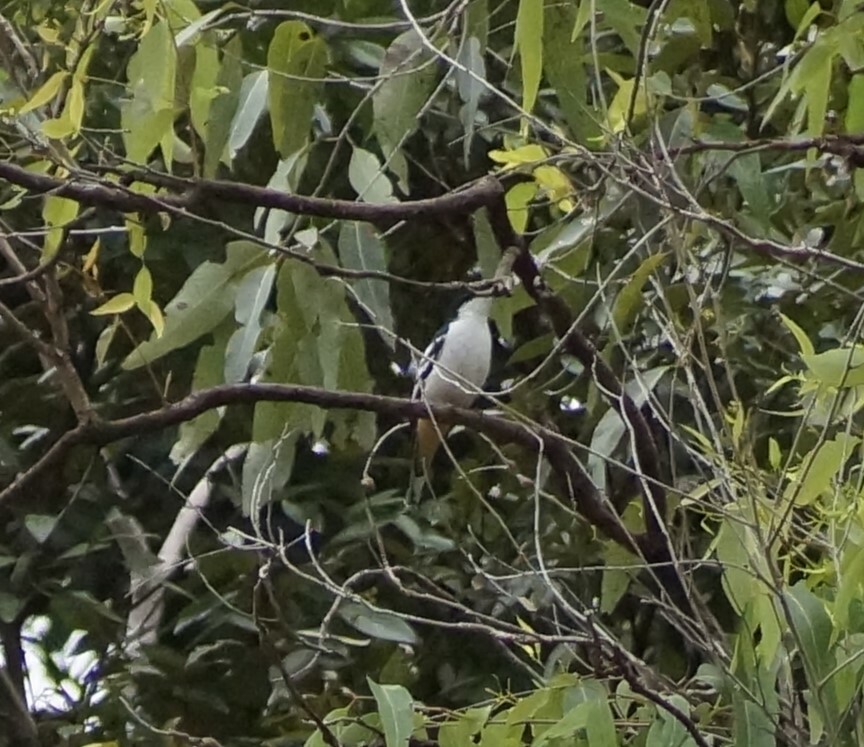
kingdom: Animalia
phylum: Chordata
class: Aves
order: Passeriformes
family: Campephagidae
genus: Lalage
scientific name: Lalage leucomela
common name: Varied triller
